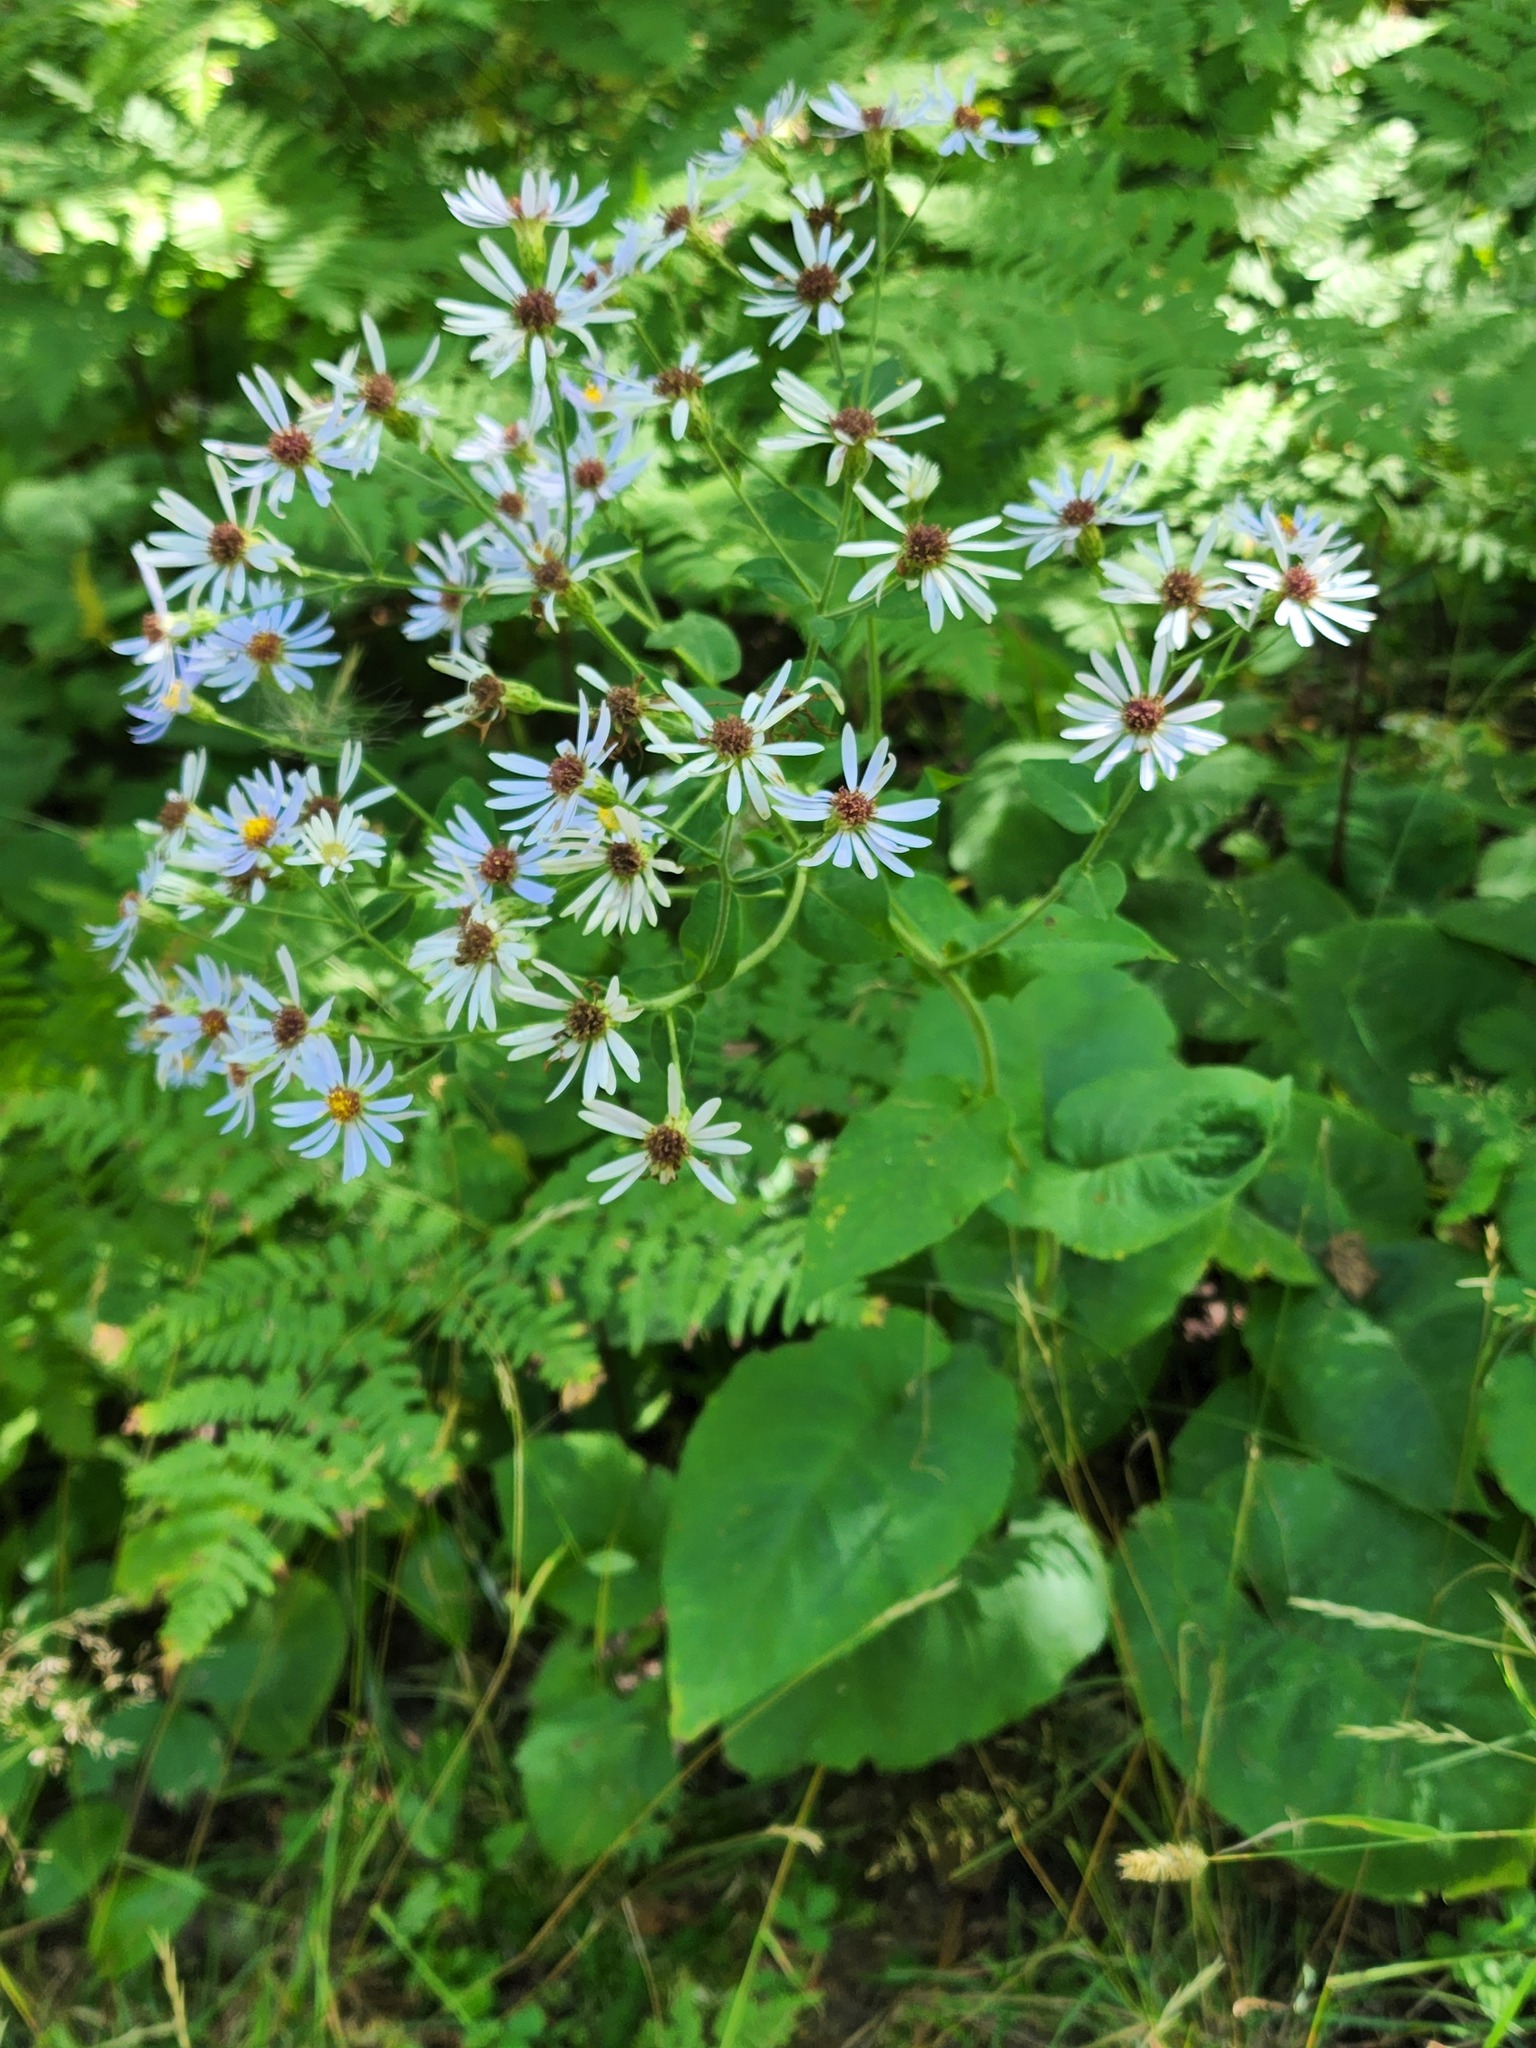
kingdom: Plantae
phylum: Tracheophyta
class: Magnoliopsida
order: Asterales
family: Asteraceae
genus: Eurybia
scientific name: Eurybia macrophylla
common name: Big-leaved aster
